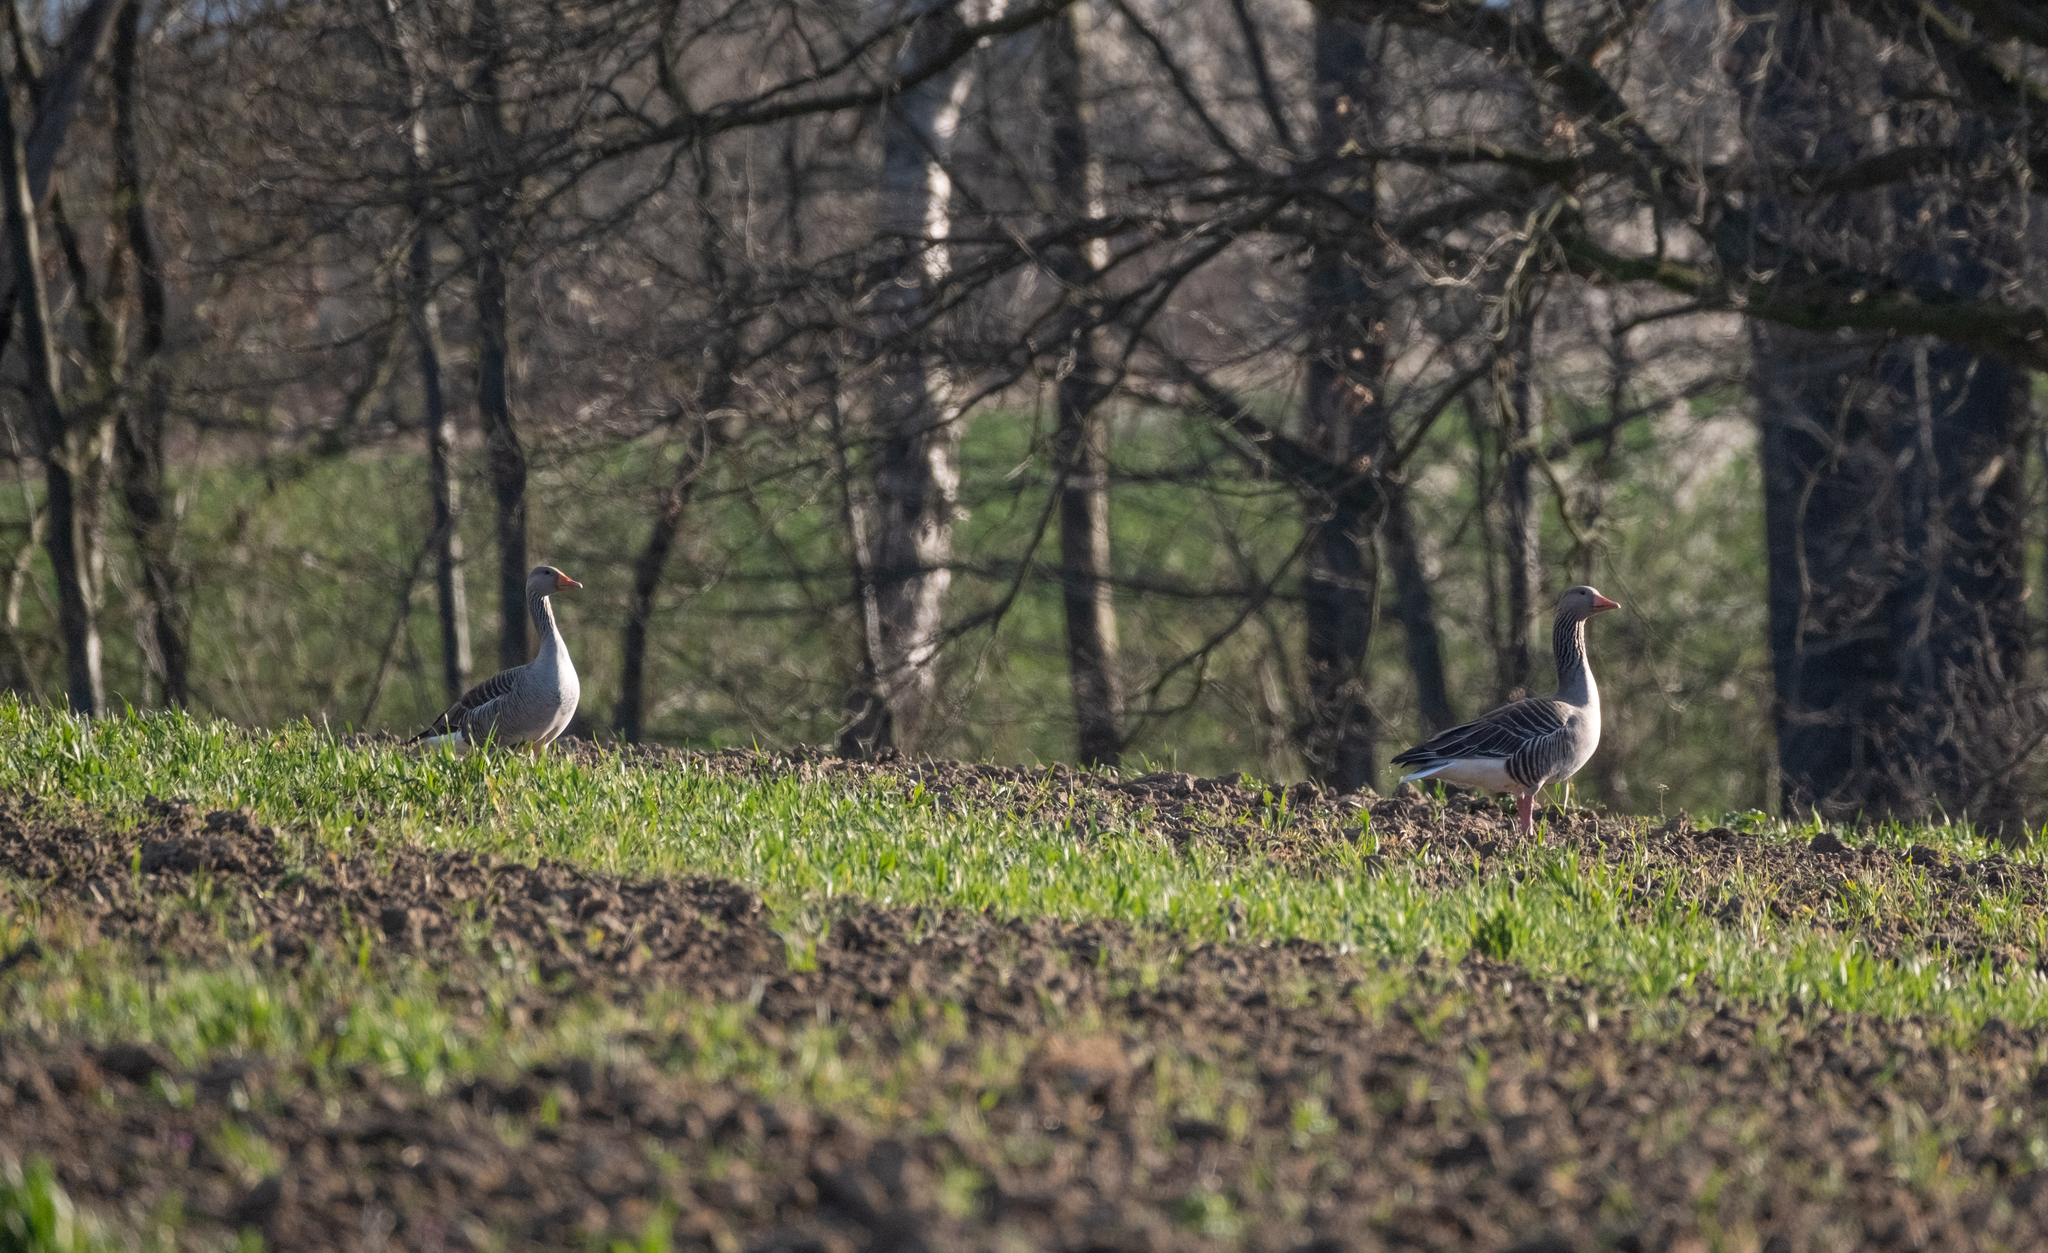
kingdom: Animalia
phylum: Chordata
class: Aves
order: Anseriformes
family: Anatidae
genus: Anser
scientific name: Anser anser
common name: Greylag goose
